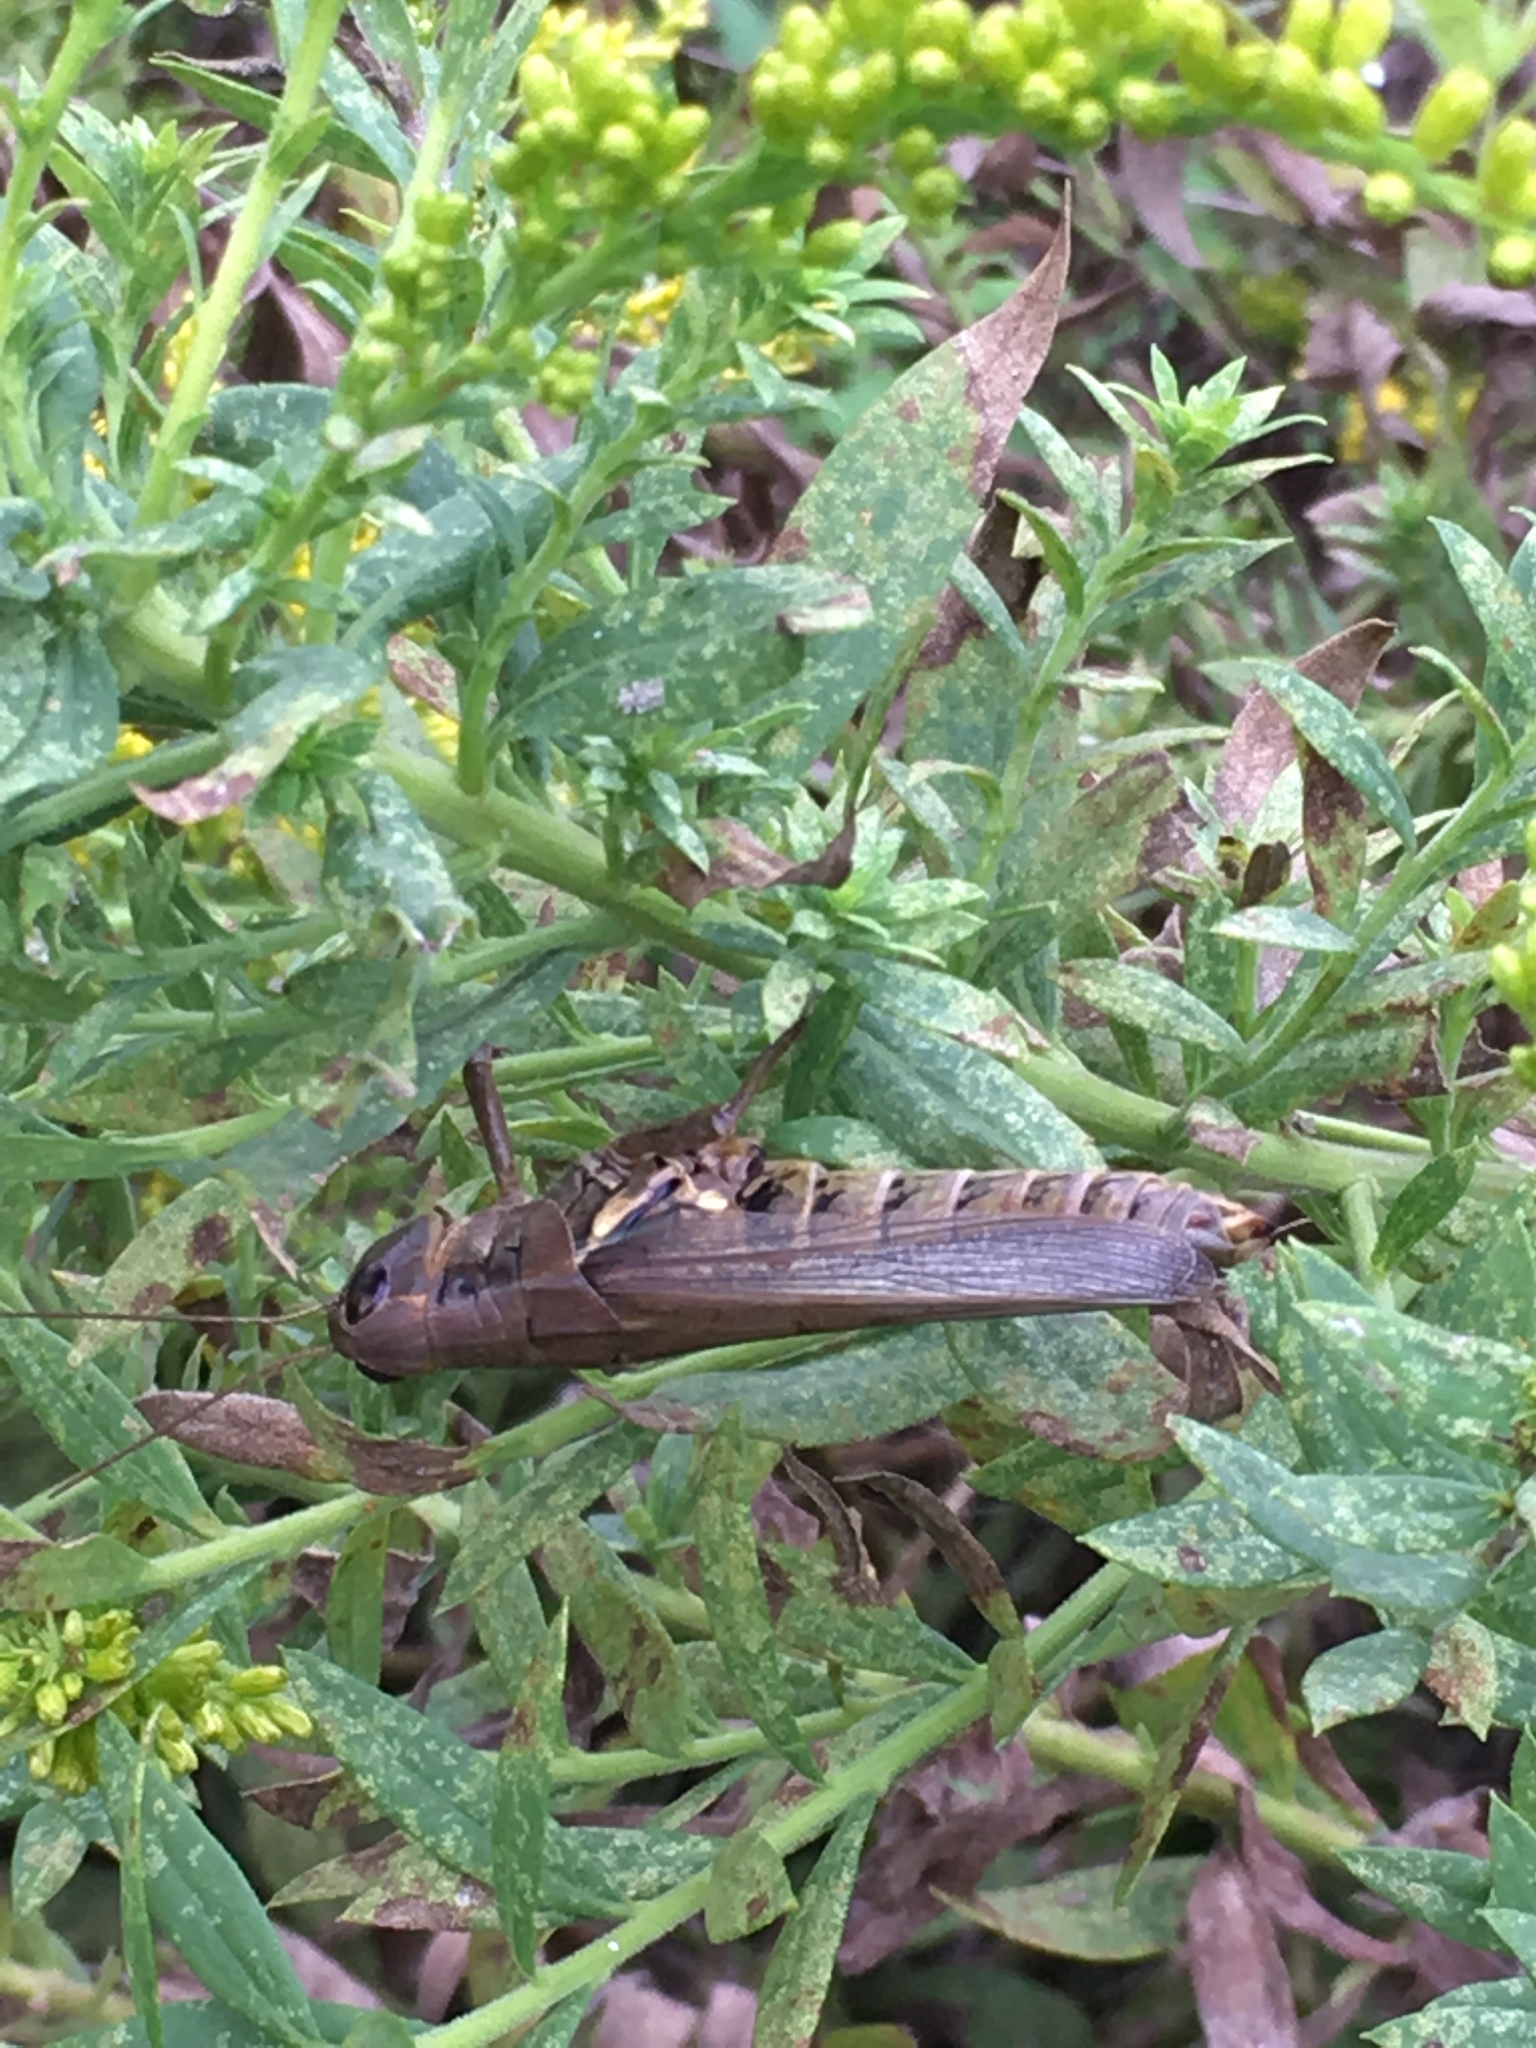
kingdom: Animalia
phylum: Arthropoda
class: Insecta
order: Orthoptera
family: Acrididae
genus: Melanoplus
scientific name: Melanoplus differentialis
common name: Differential grasshopper
